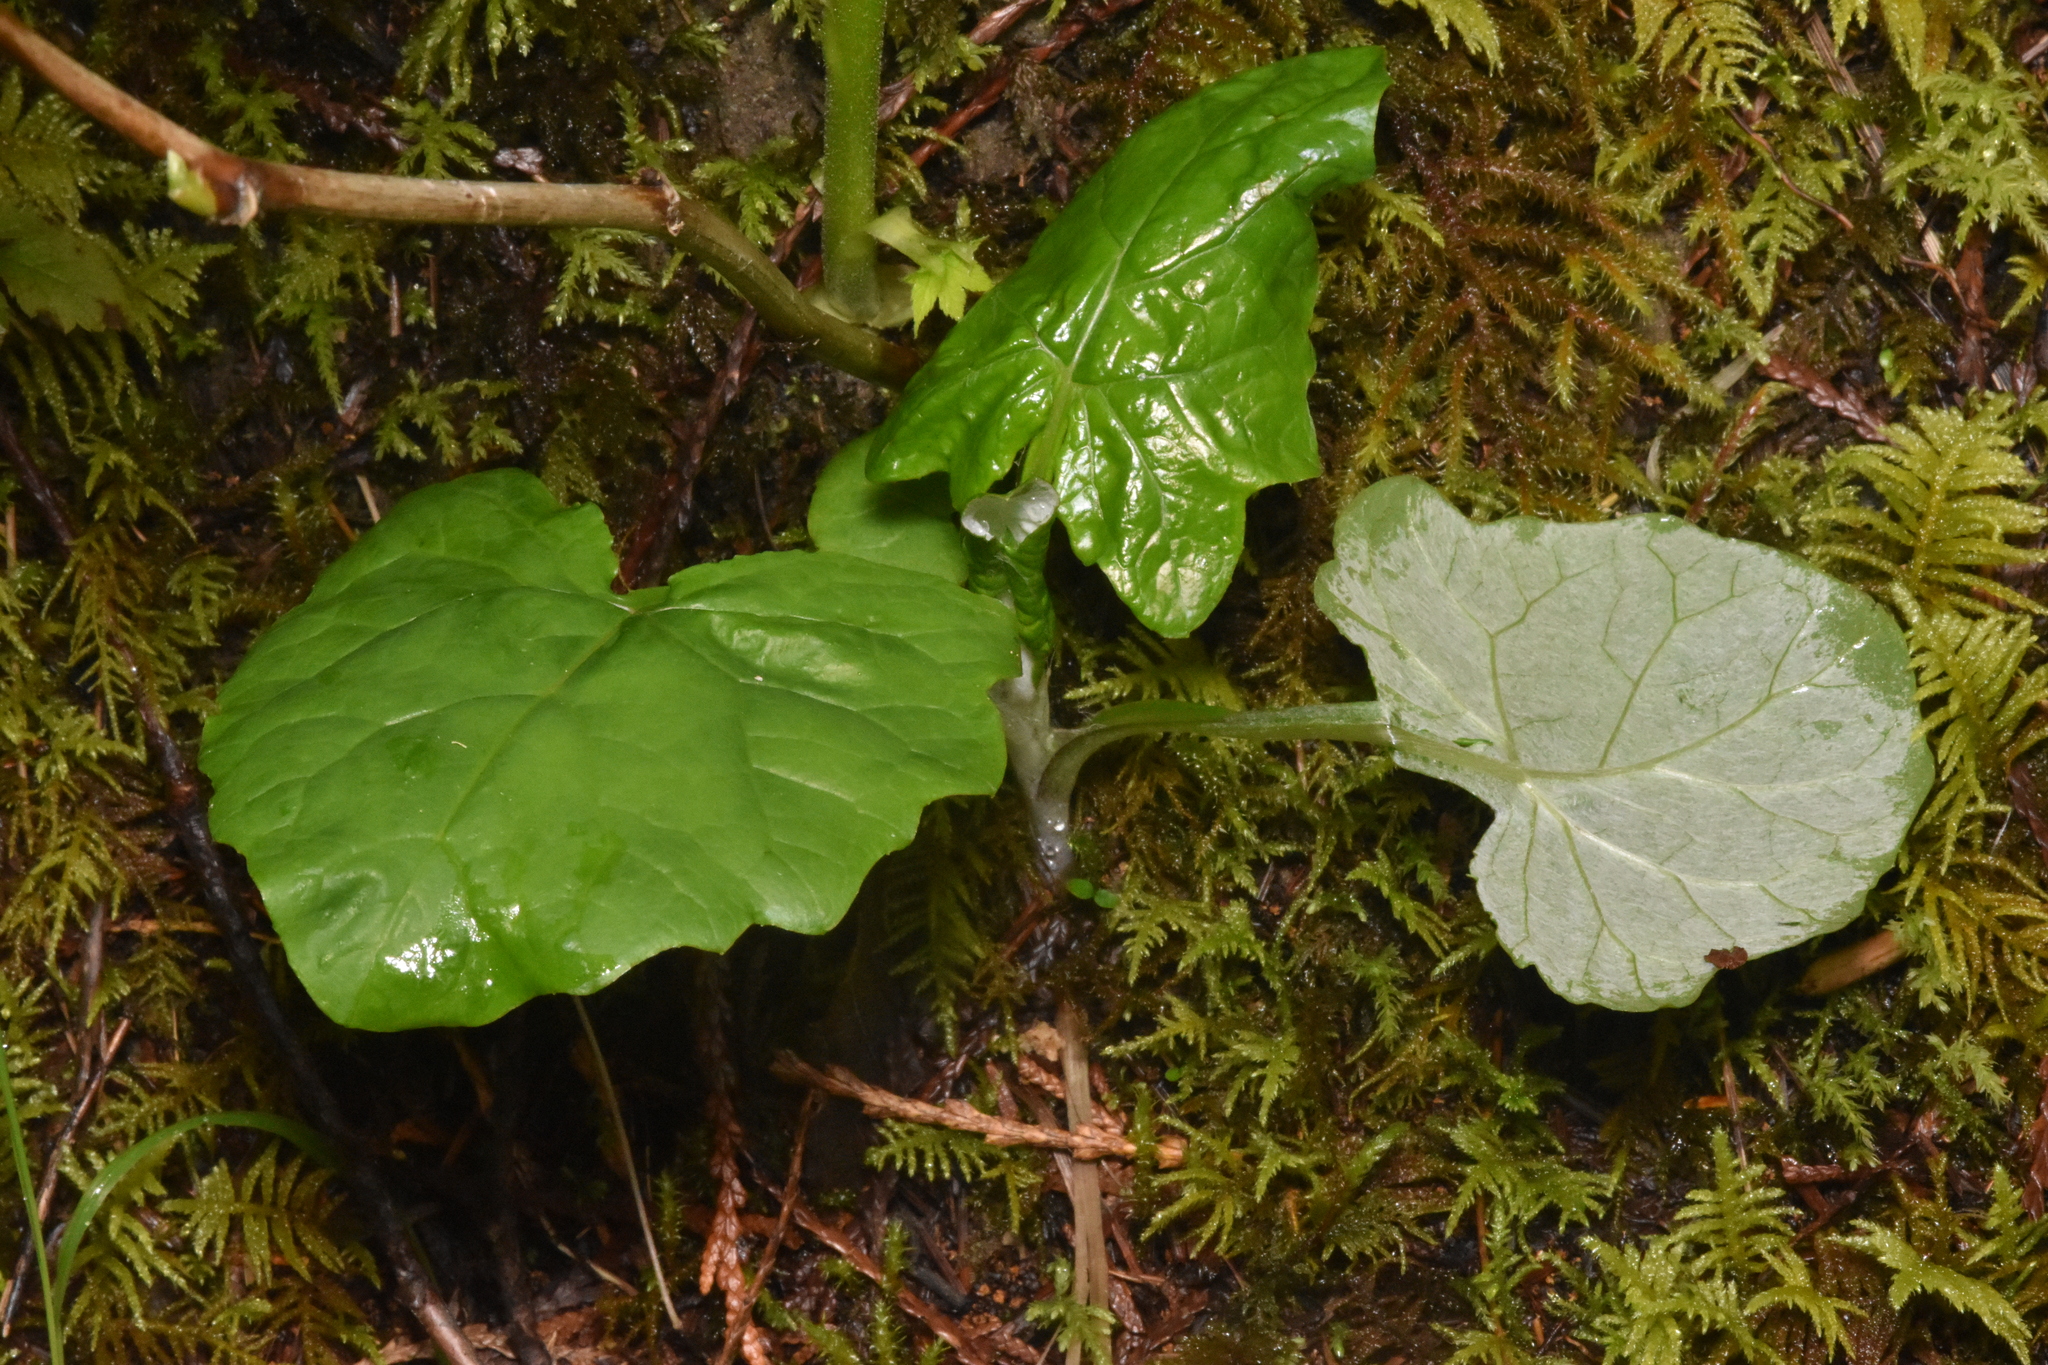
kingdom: Plantae
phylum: Tracheophyta
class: Magnoliopsida
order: Asterales
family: Asteraceae
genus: Adenocaulon
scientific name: Adenocaulon bicolor
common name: Trailplant
